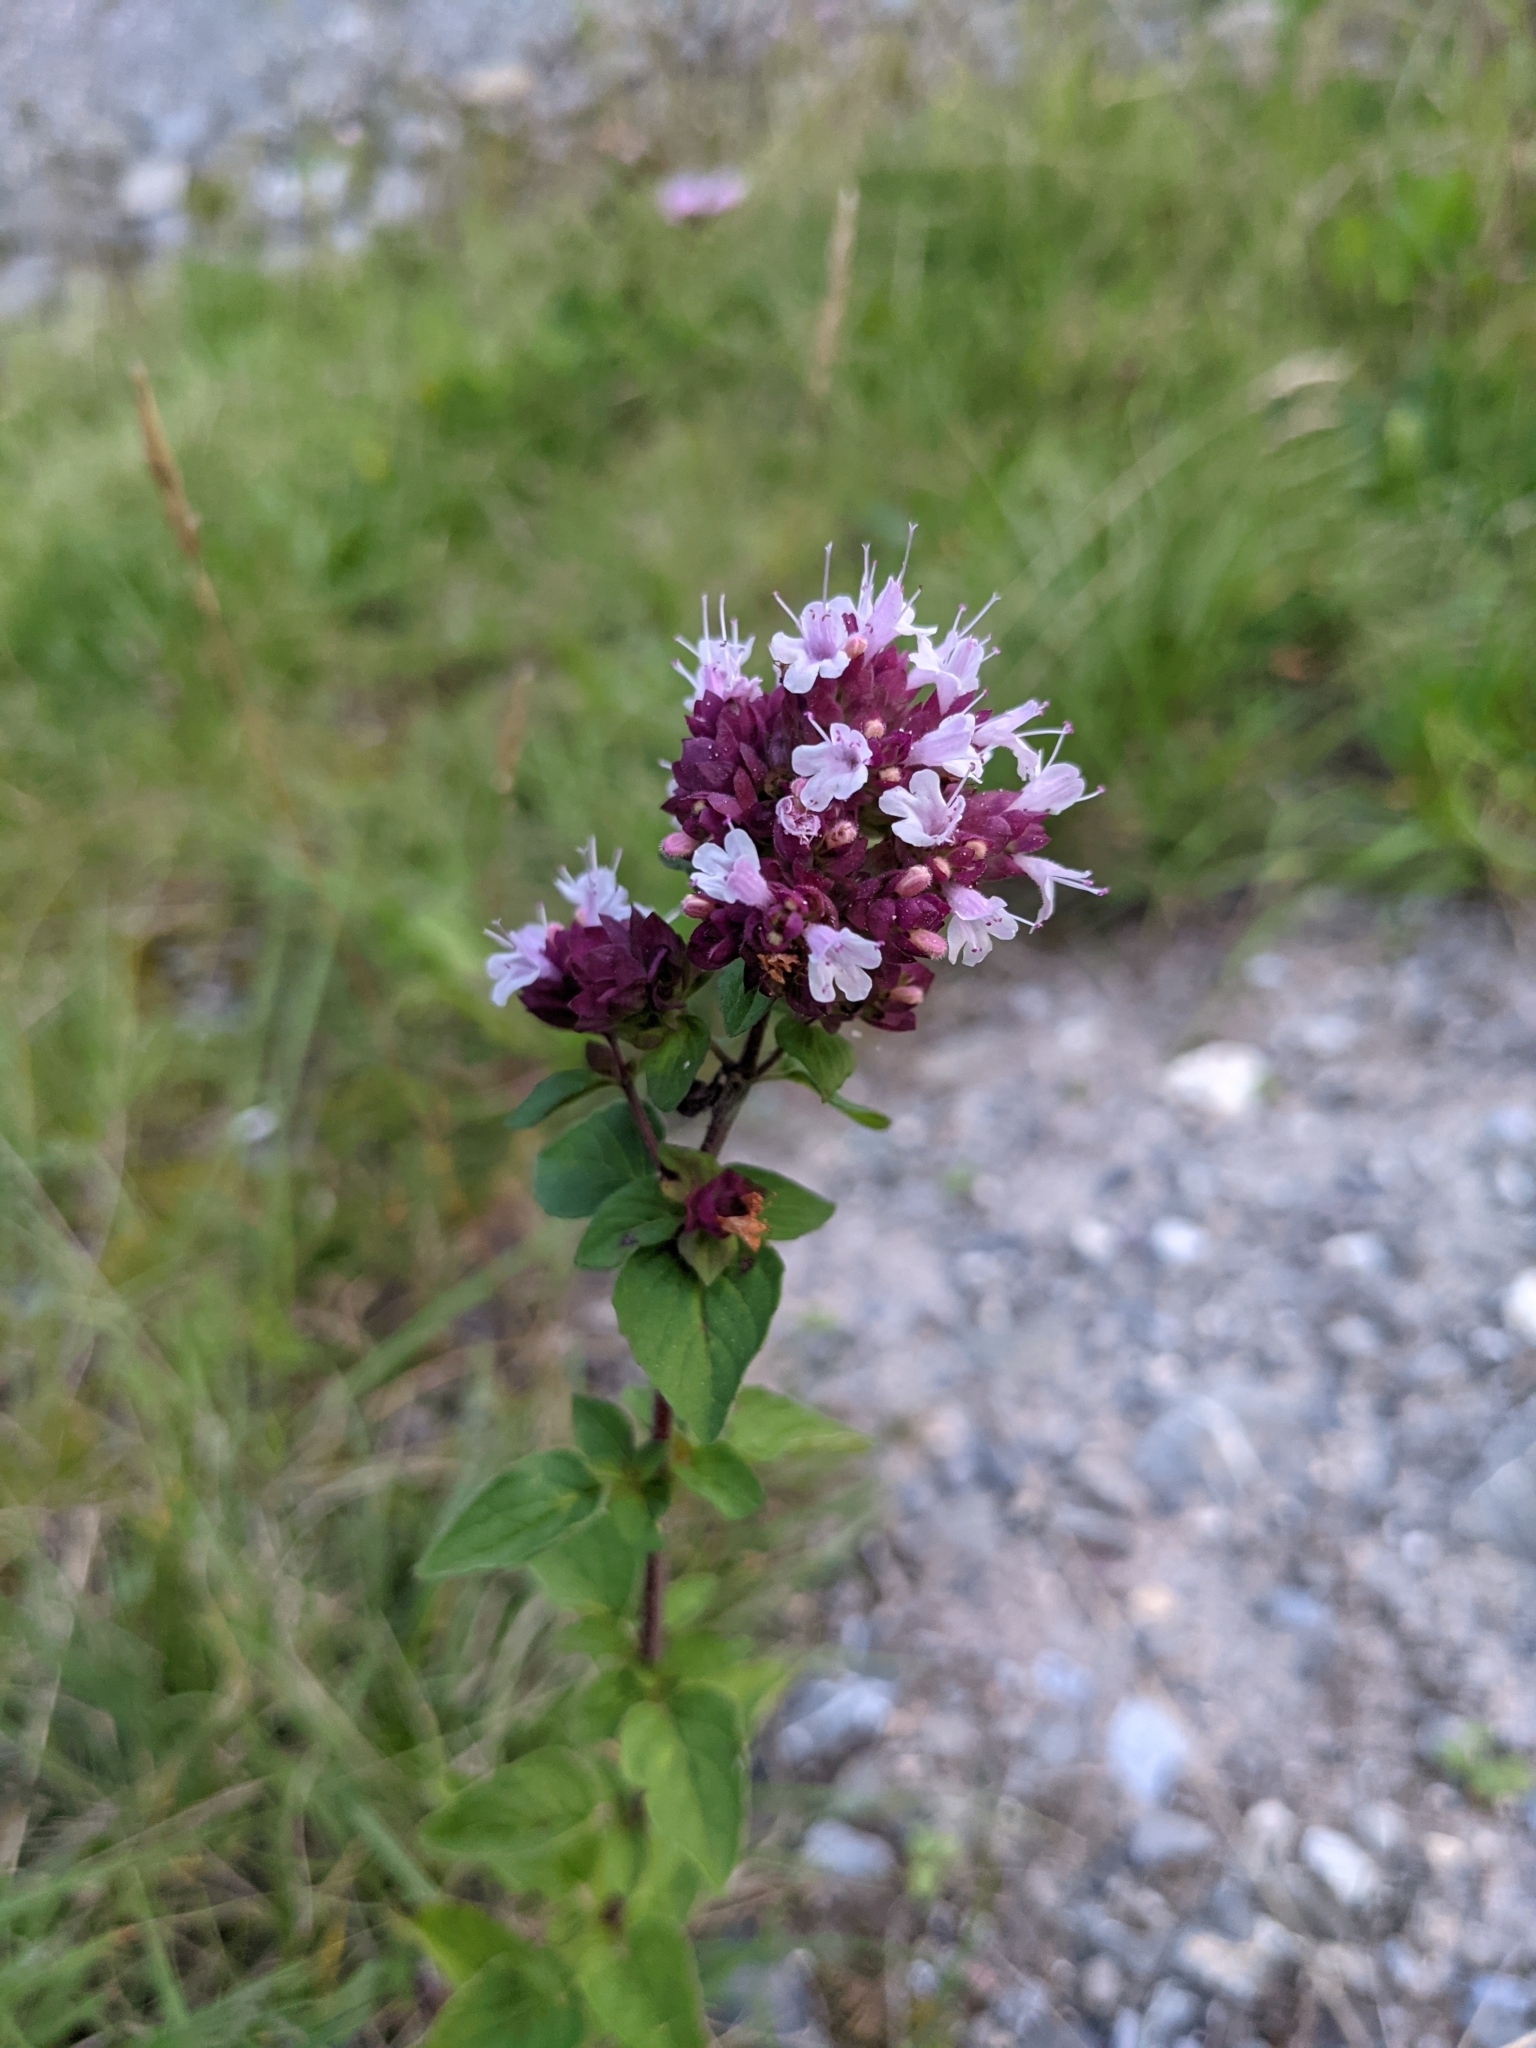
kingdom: Plantae
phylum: Tracheophyta
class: Magnoliopsida
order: Lamiales
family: Lamiaceae
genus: Origanum
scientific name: Origanum vulgare
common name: Wild marjoram
